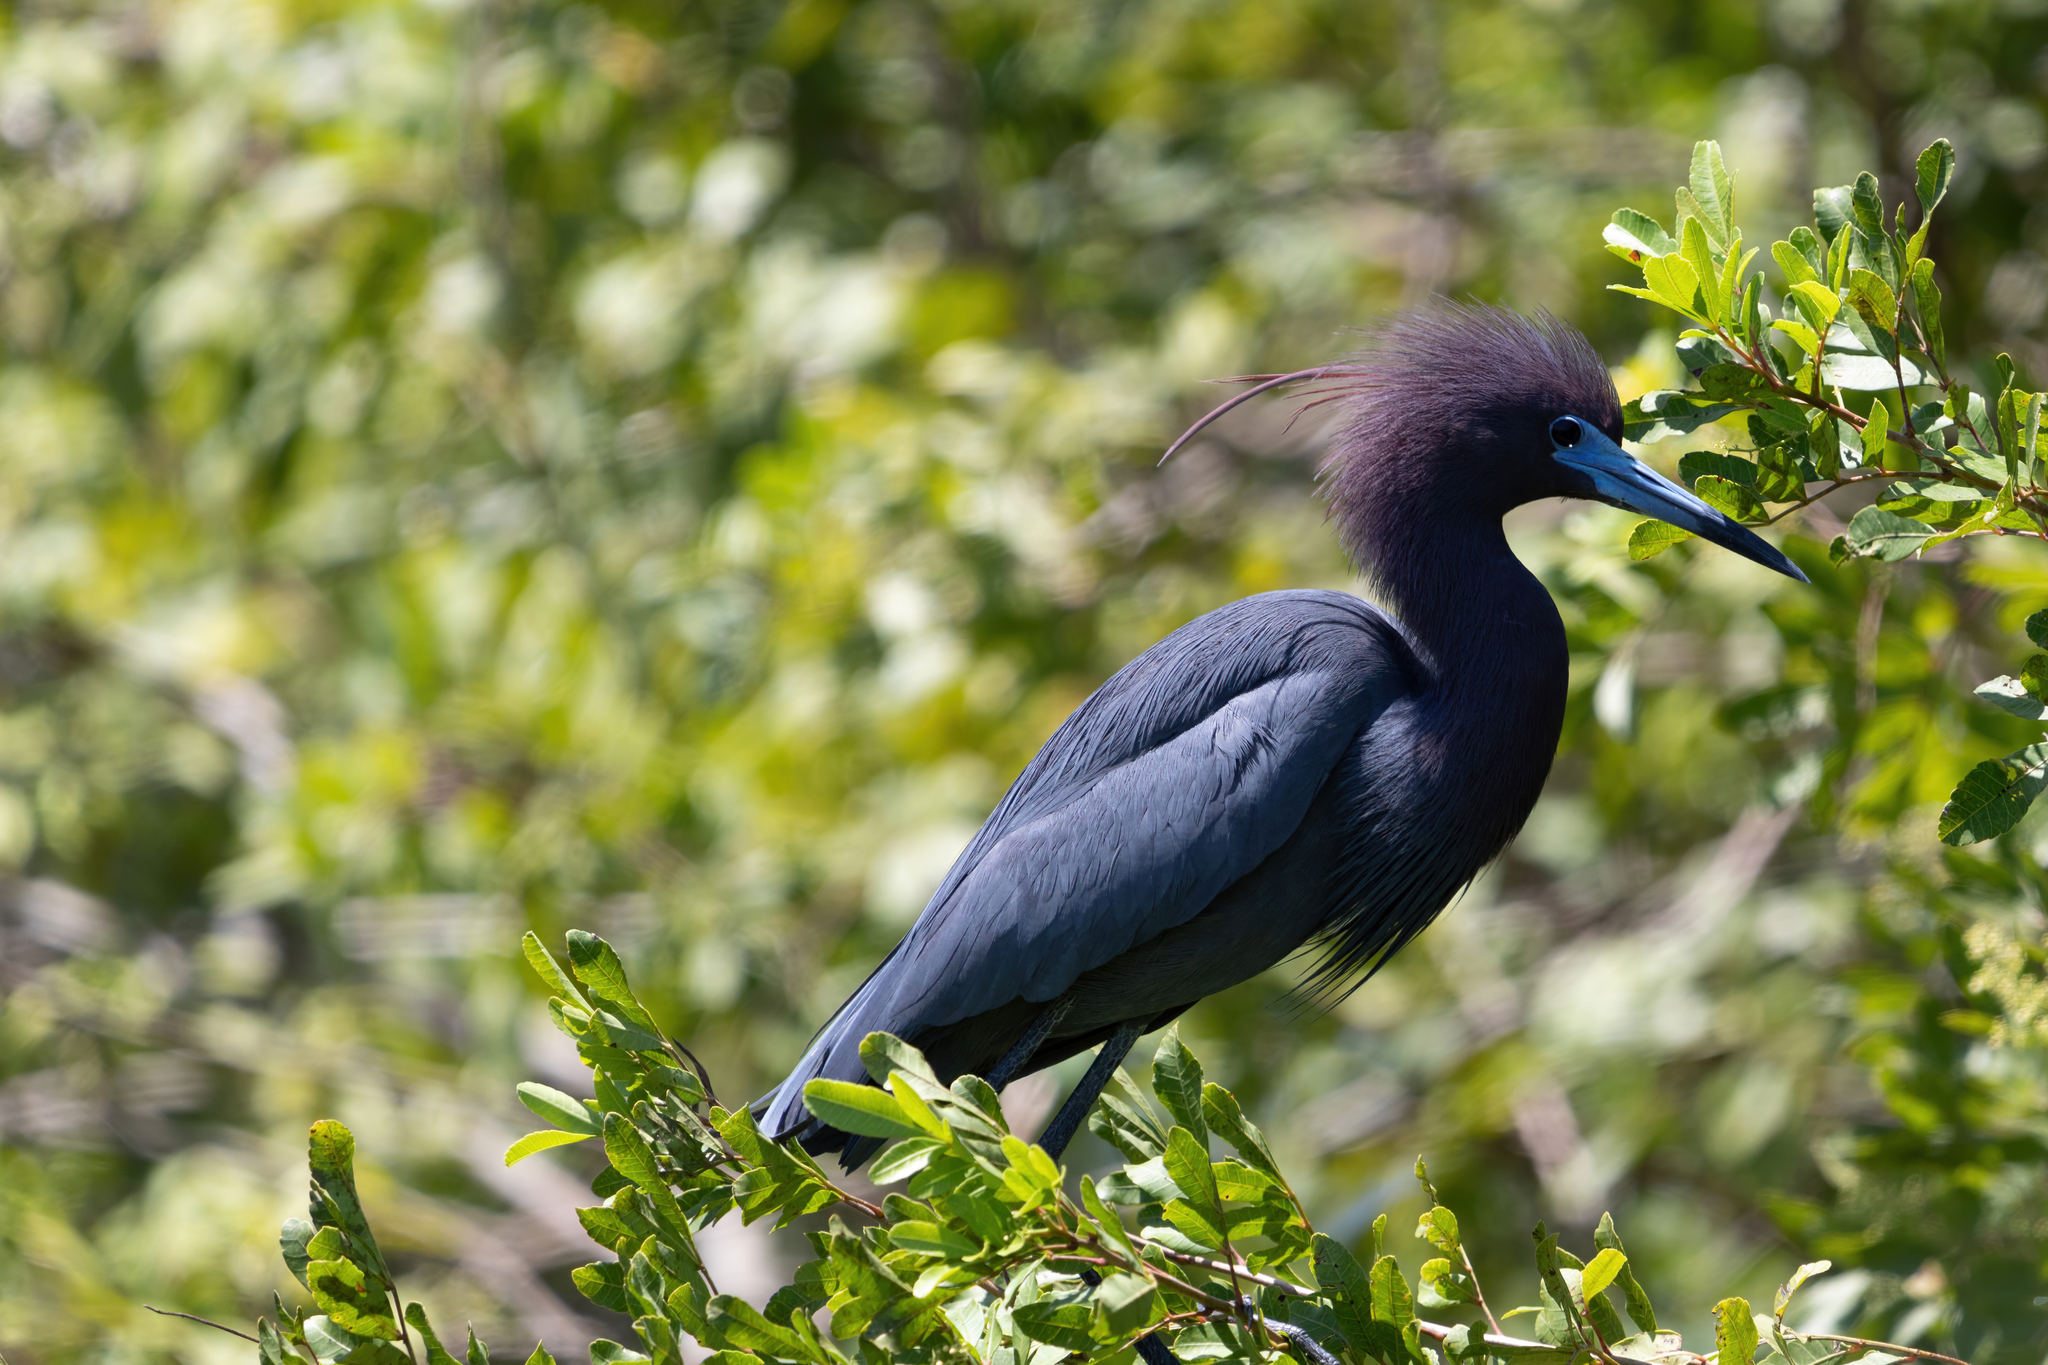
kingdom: Animalia
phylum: Chordata
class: Aves
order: Pelecaniformes
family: Ardeidae
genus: Egretta
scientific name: Egretta caerulea
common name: Little blue heron
